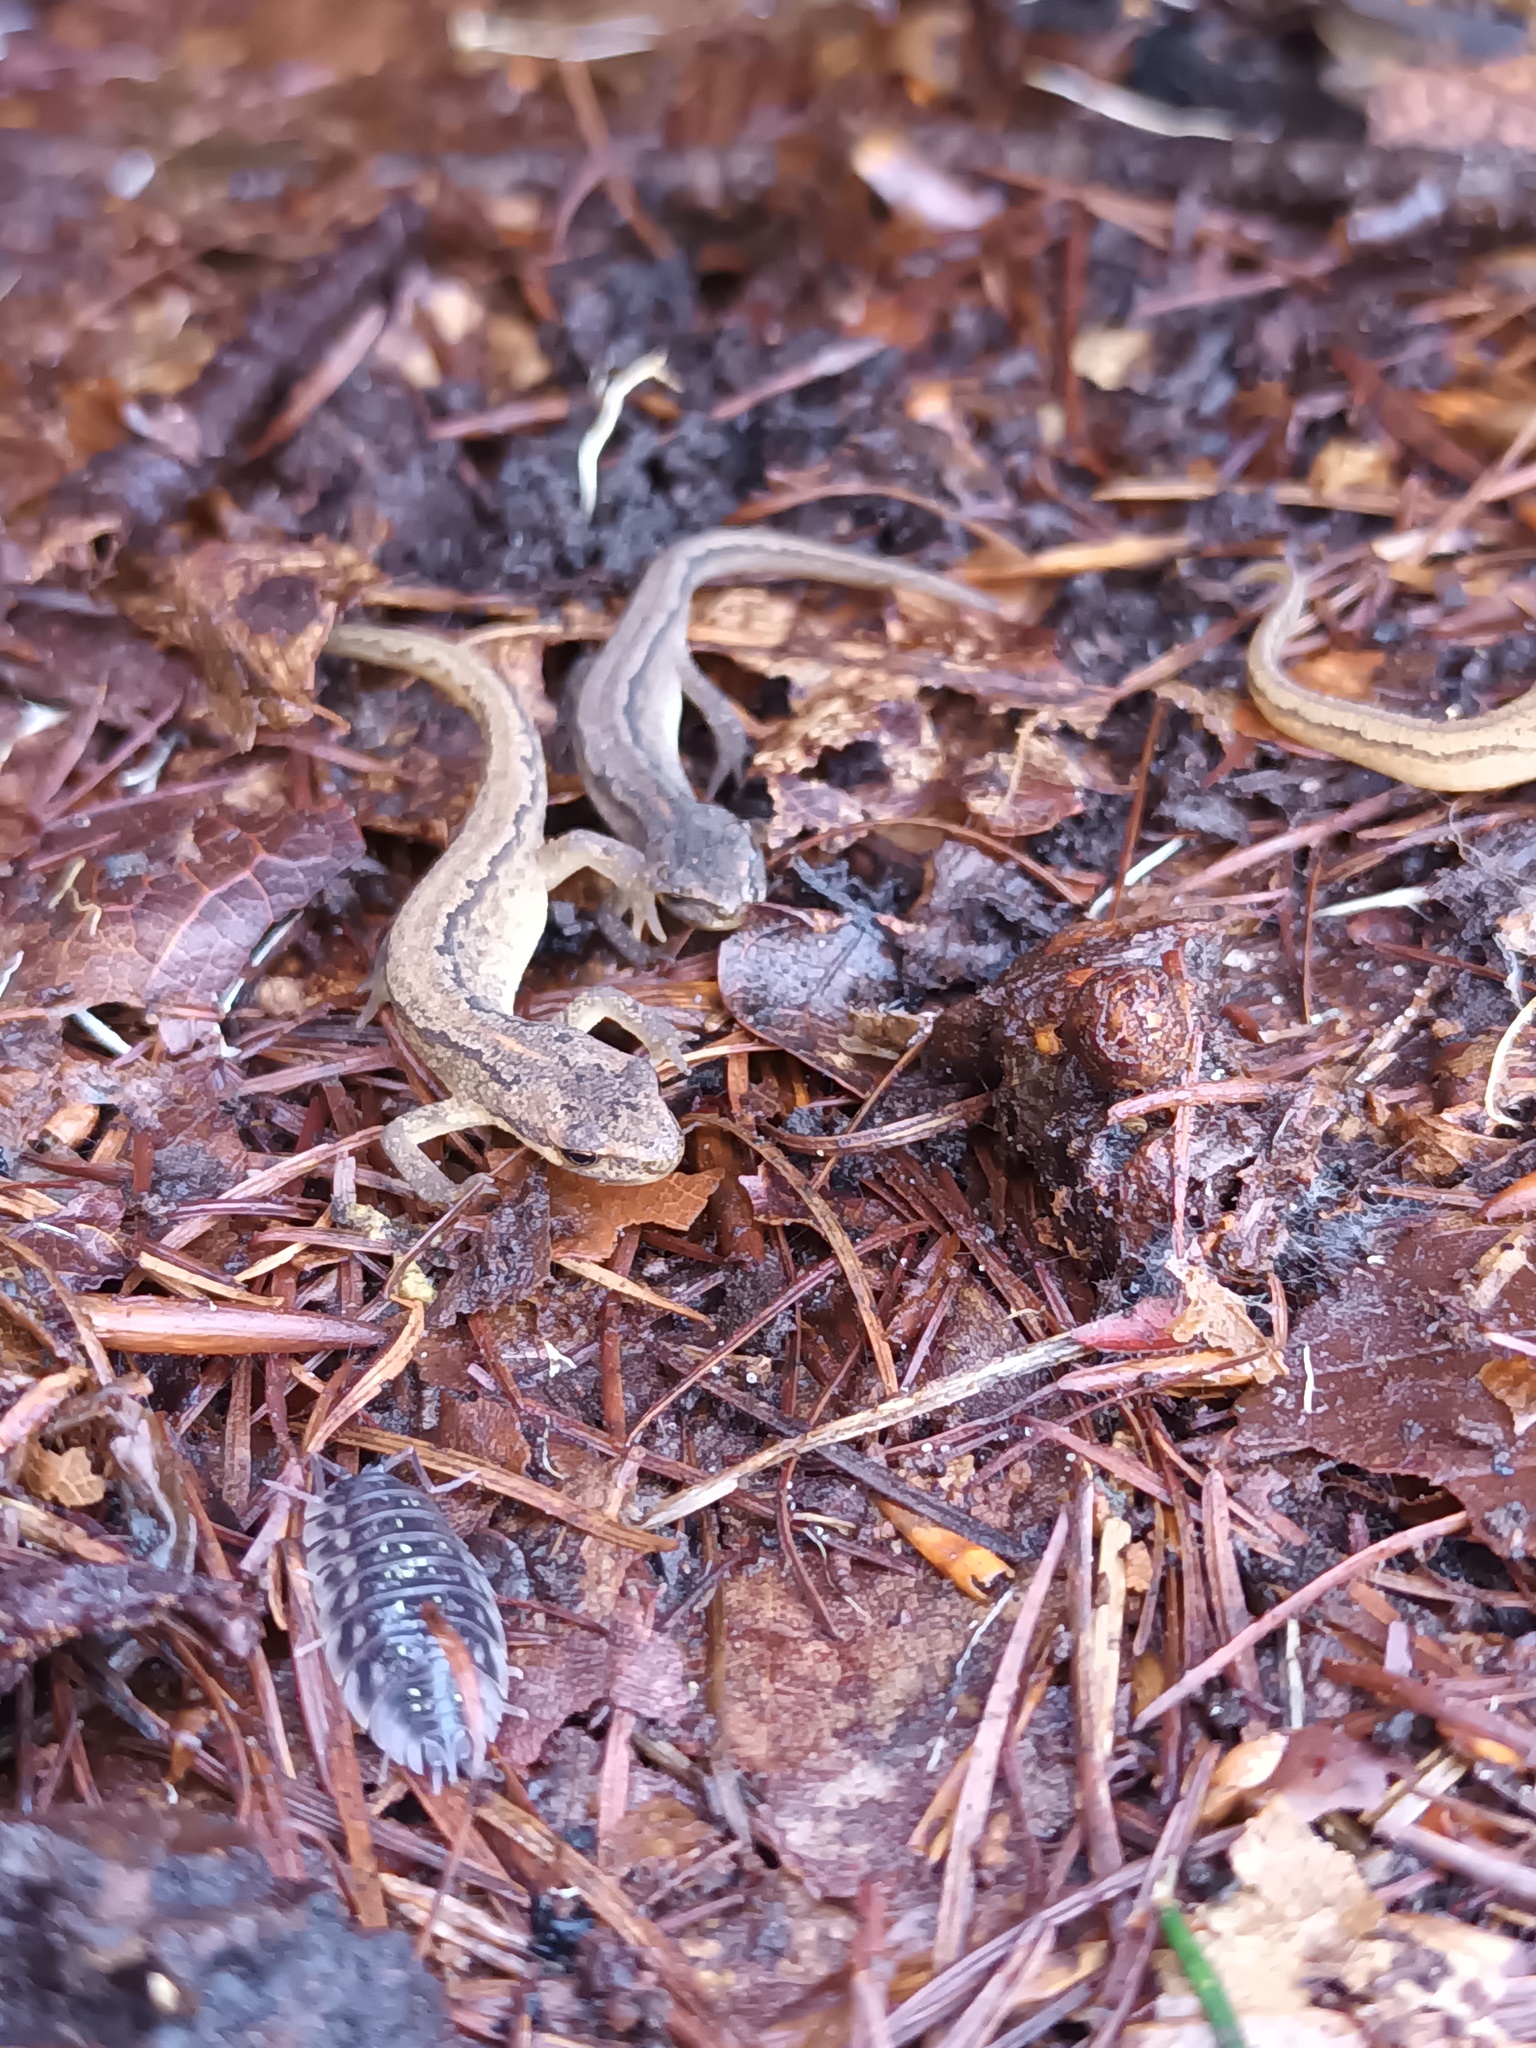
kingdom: Animalia
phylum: Chordata
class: Amphibia
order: Caudata
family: Salamandridae
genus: Lissotriton
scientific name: Lissotriton vulgaris
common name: Smooth newt
